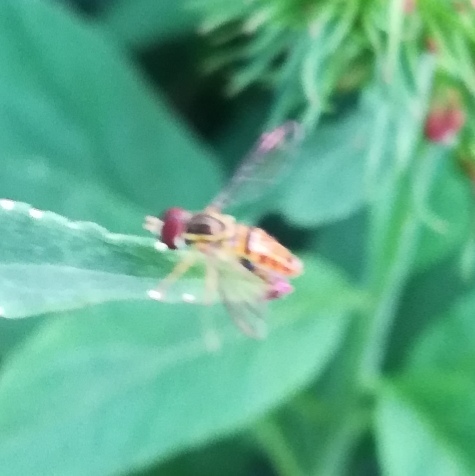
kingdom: Animalia
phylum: Arthropoda
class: Insecta
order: Diptera
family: Syrphidae
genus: Toxomerus
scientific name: Toxomerus geminatus
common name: Eastern calligrapher
